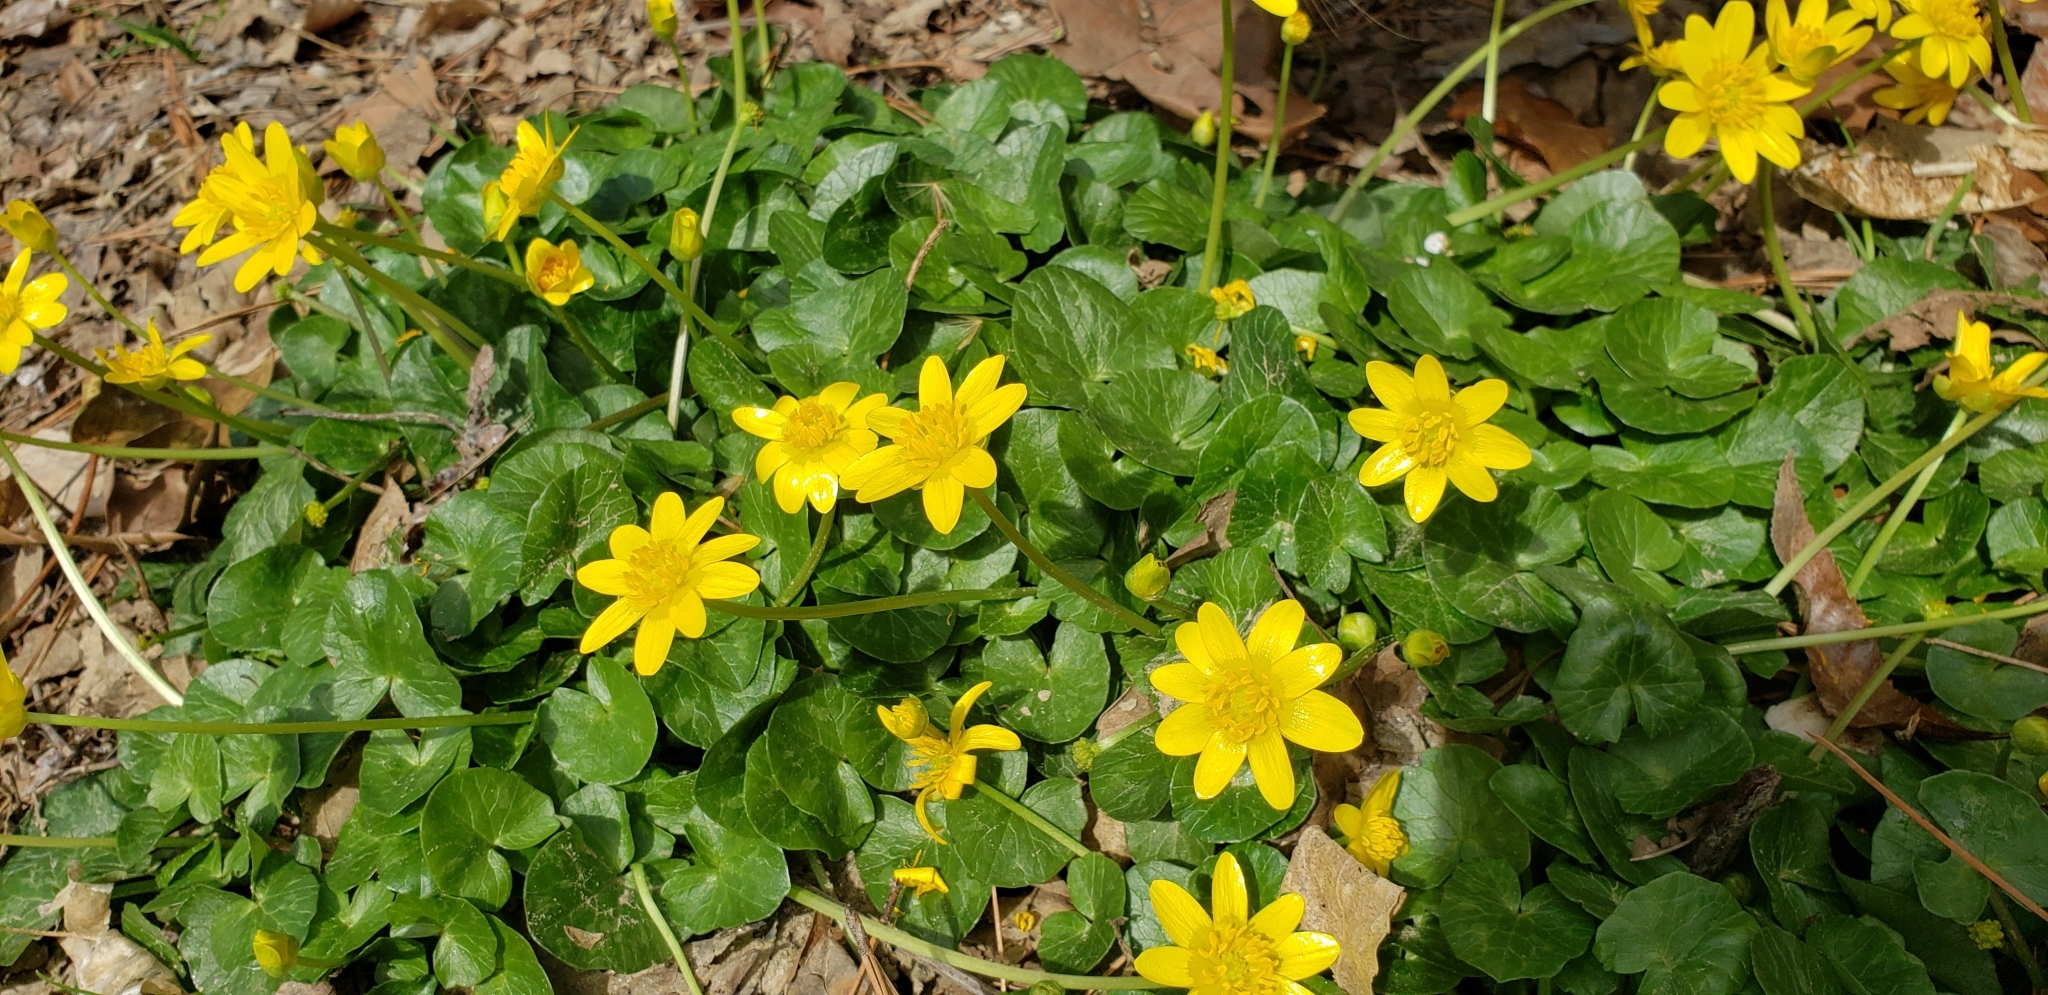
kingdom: Plantae
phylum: Tracheophyta
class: Magnoliopsida
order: Ranunculales
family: Ranunculaceae
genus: Ficaria
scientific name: Ficaria verna
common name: Lesser celandine
